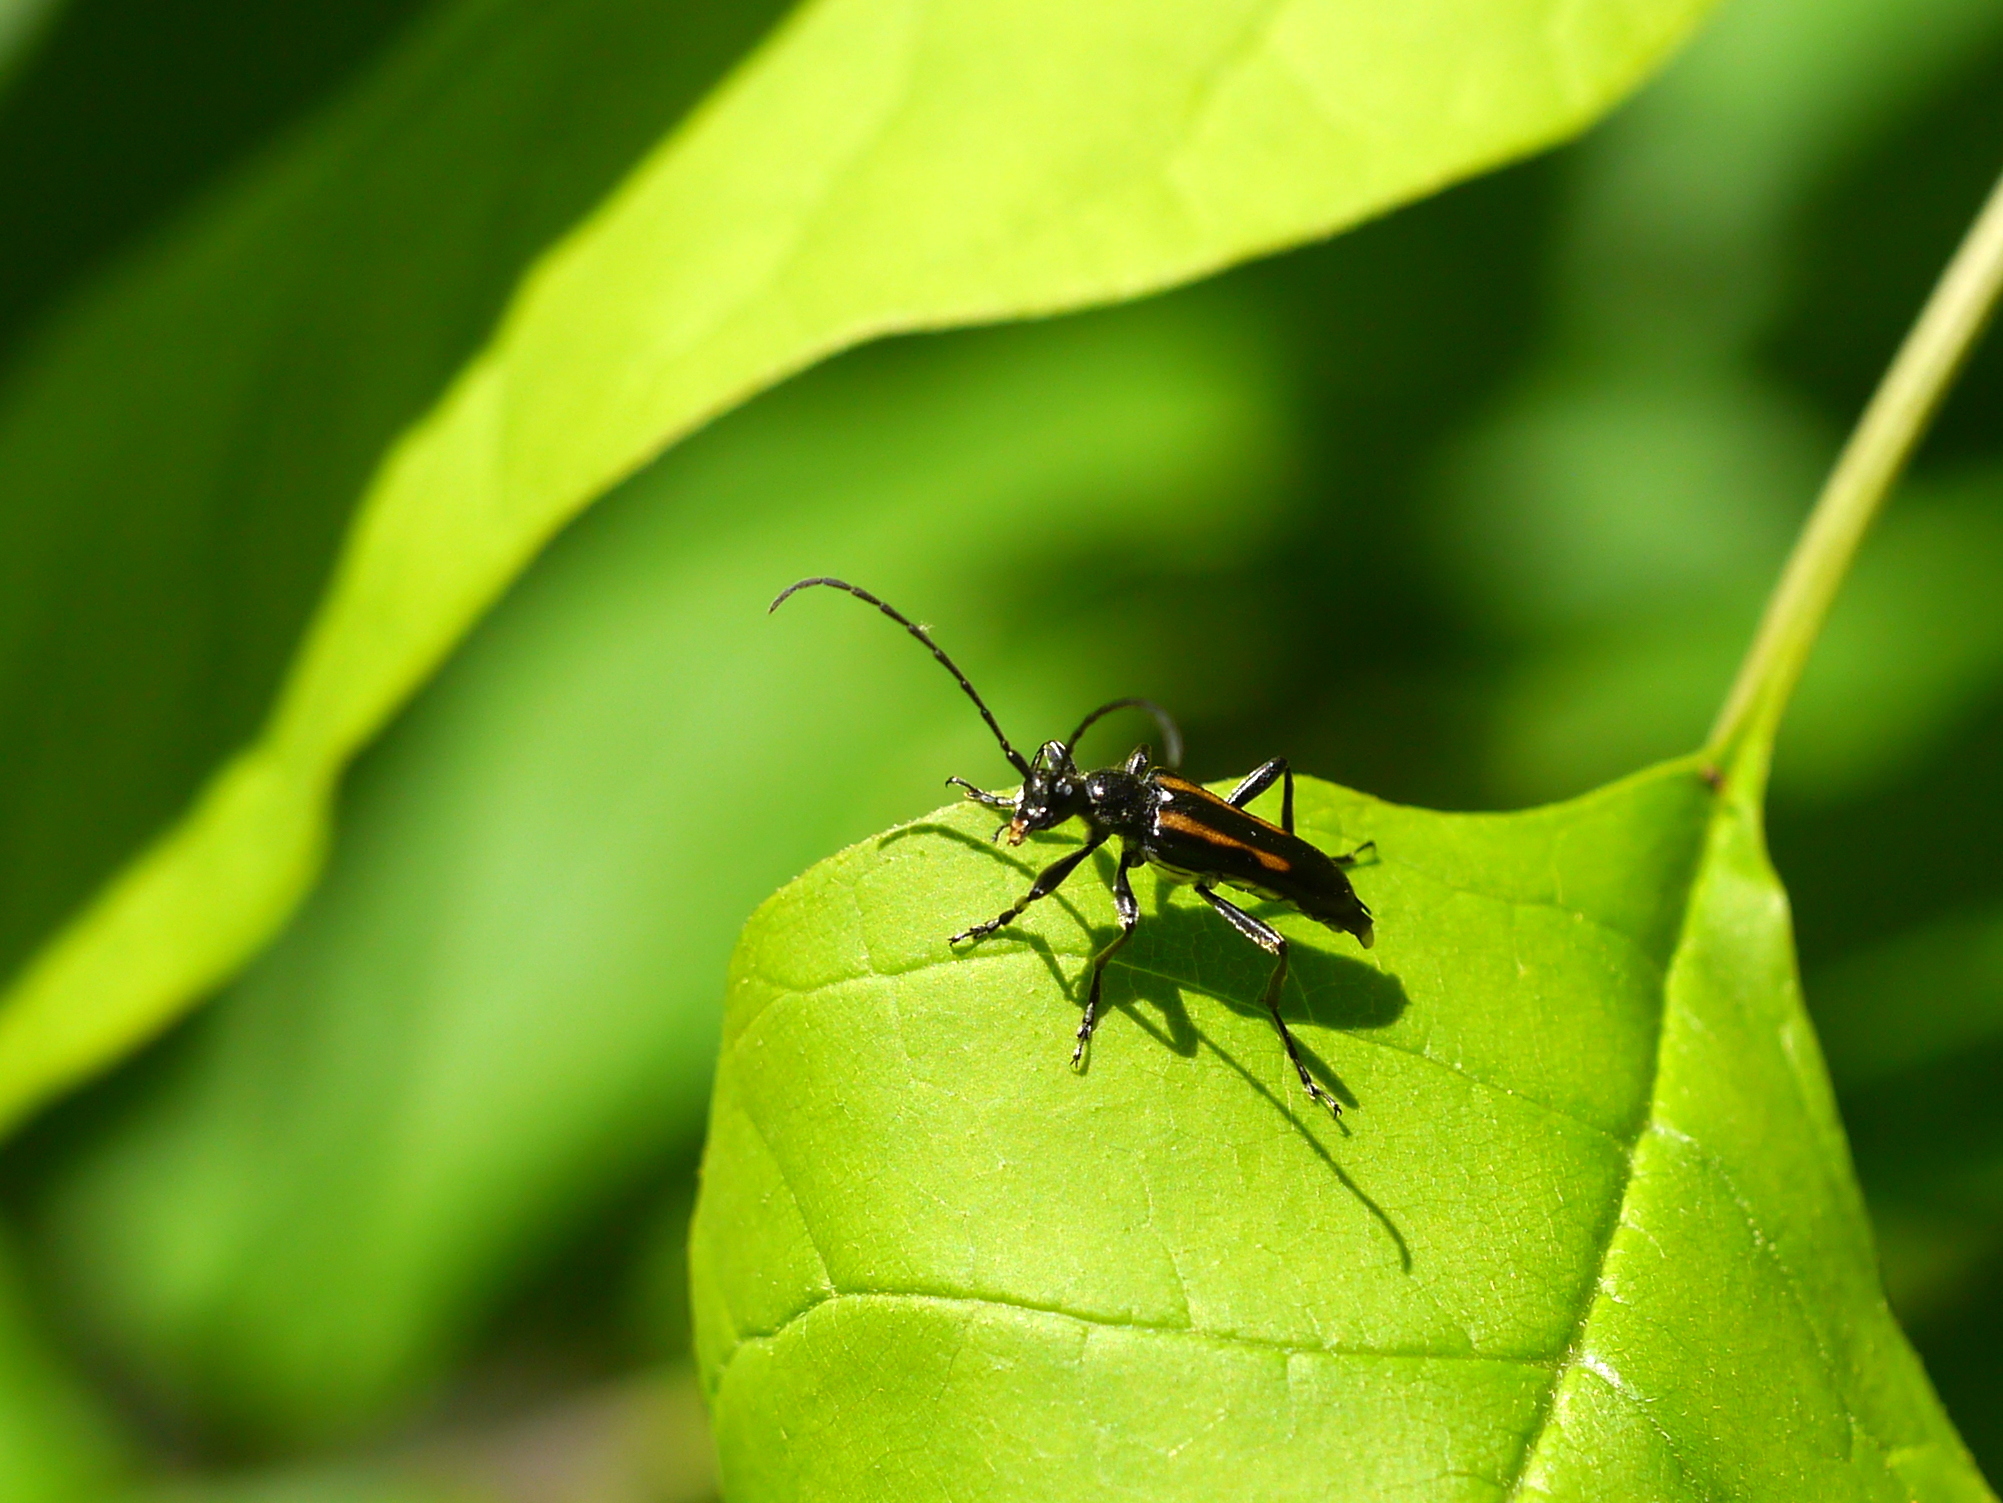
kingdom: Animalia
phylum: Arthropoda
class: Insecta
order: Coleoptera
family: Cerambycidae
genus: Strangalepta
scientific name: Strangalepta abbreviata
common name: Strangalepta flower longhorn beetle
